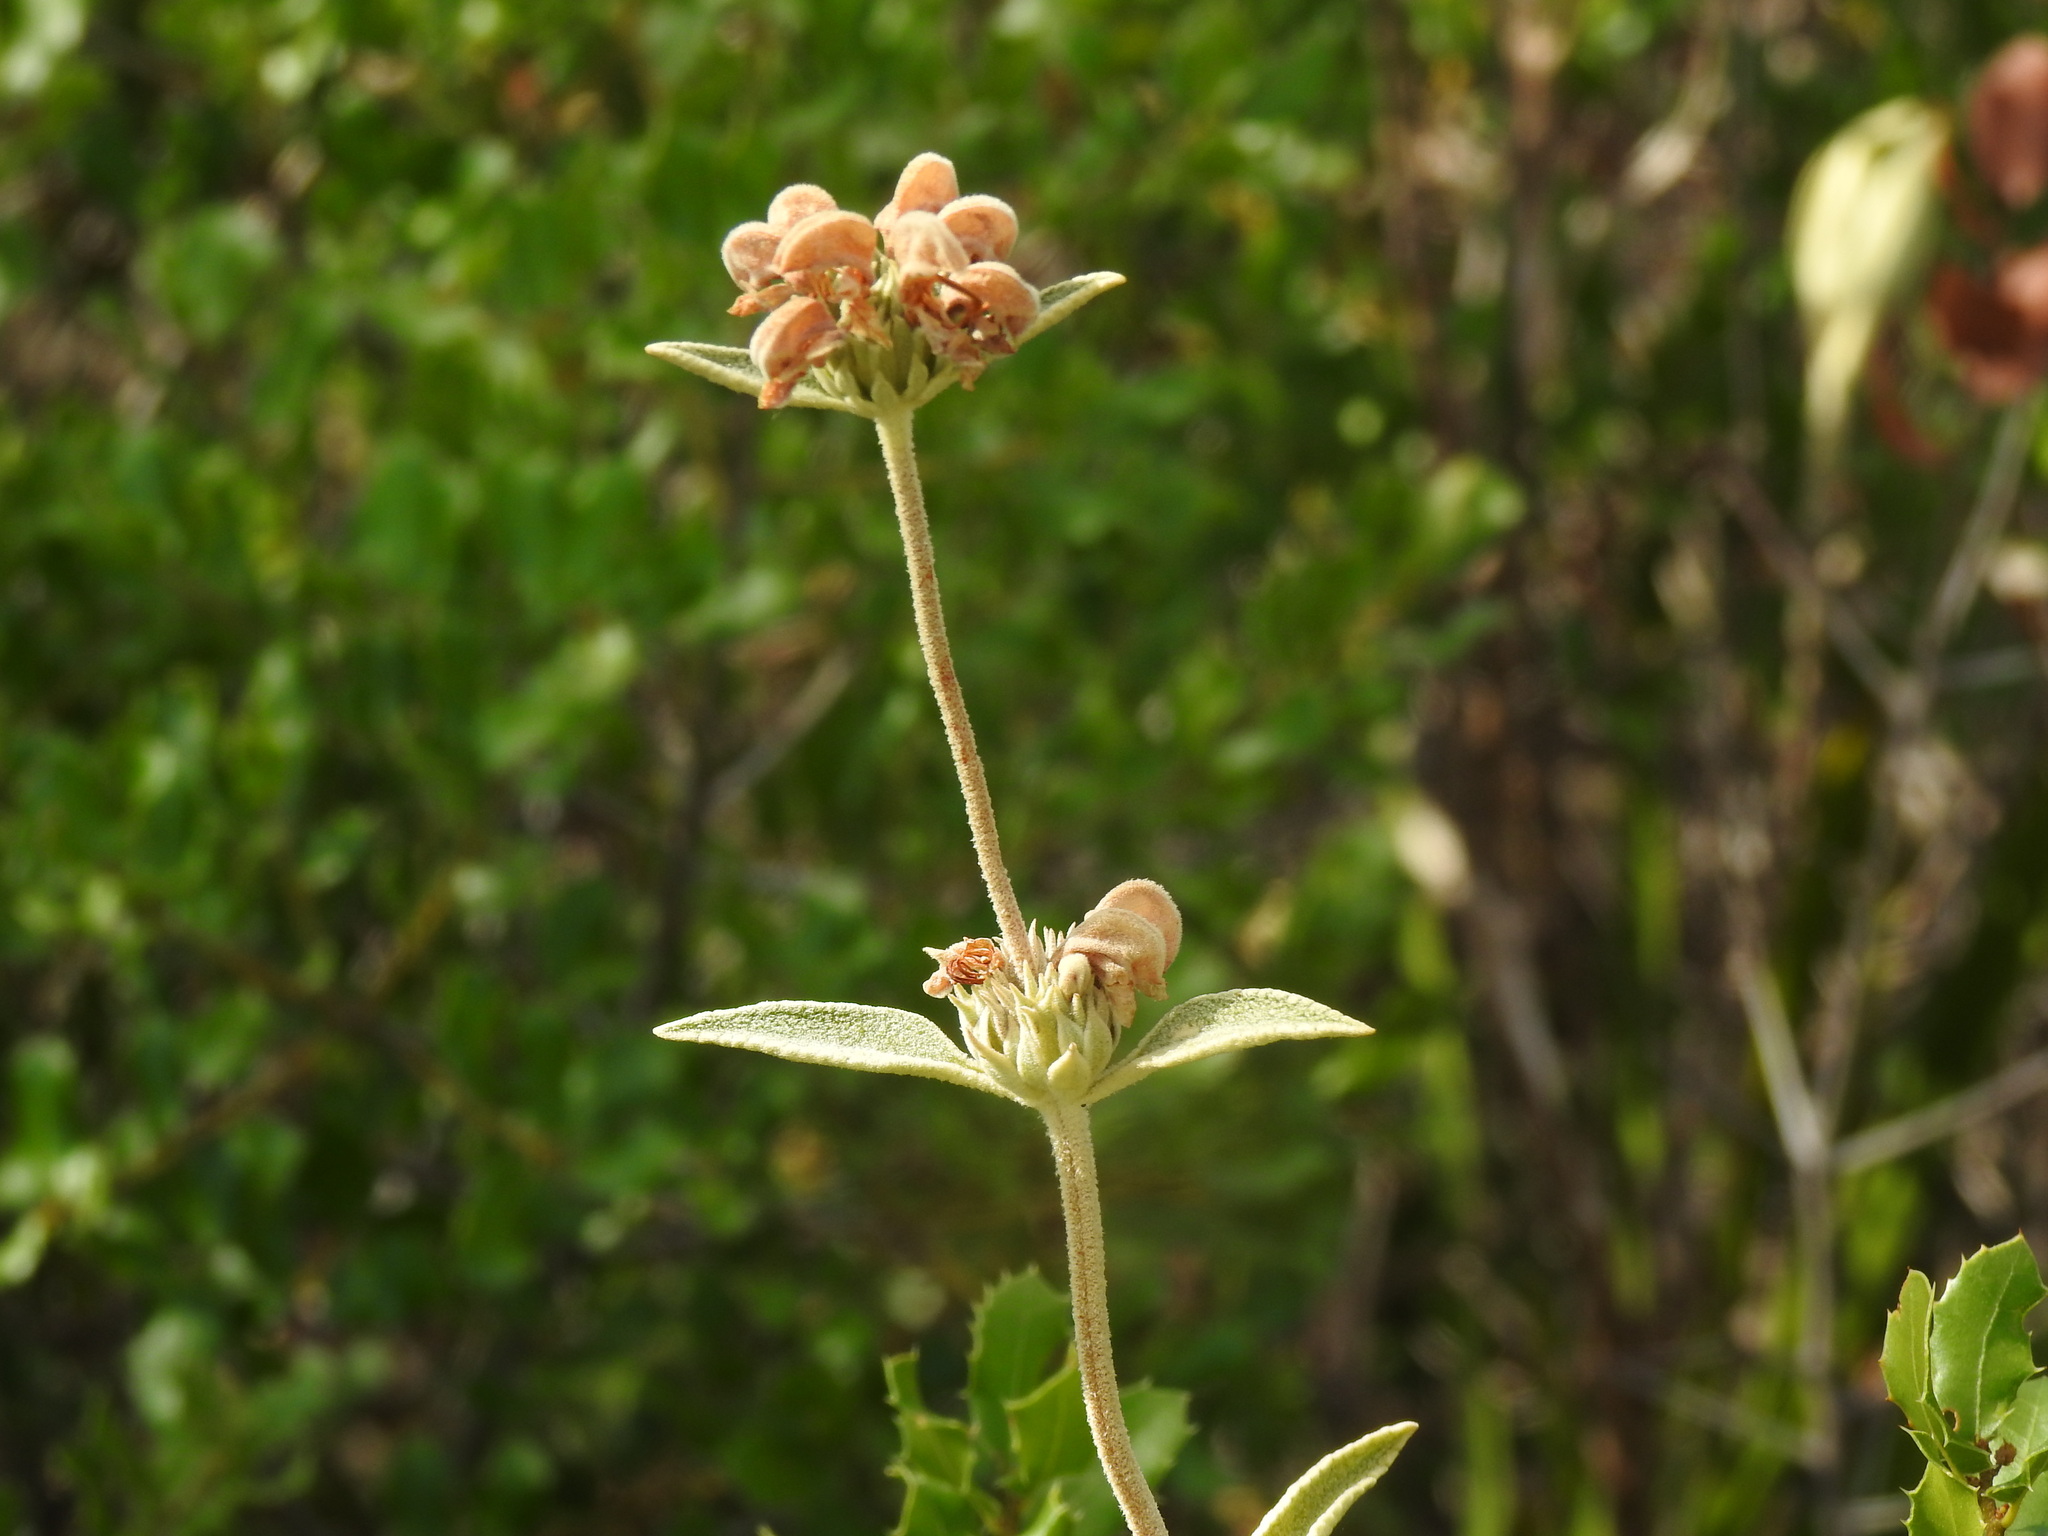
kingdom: Plantae
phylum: Tracheophyta
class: Magnoliopsida
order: Lamiales
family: Lamiaceae
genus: Phlomis
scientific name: Phlomis purpurea
